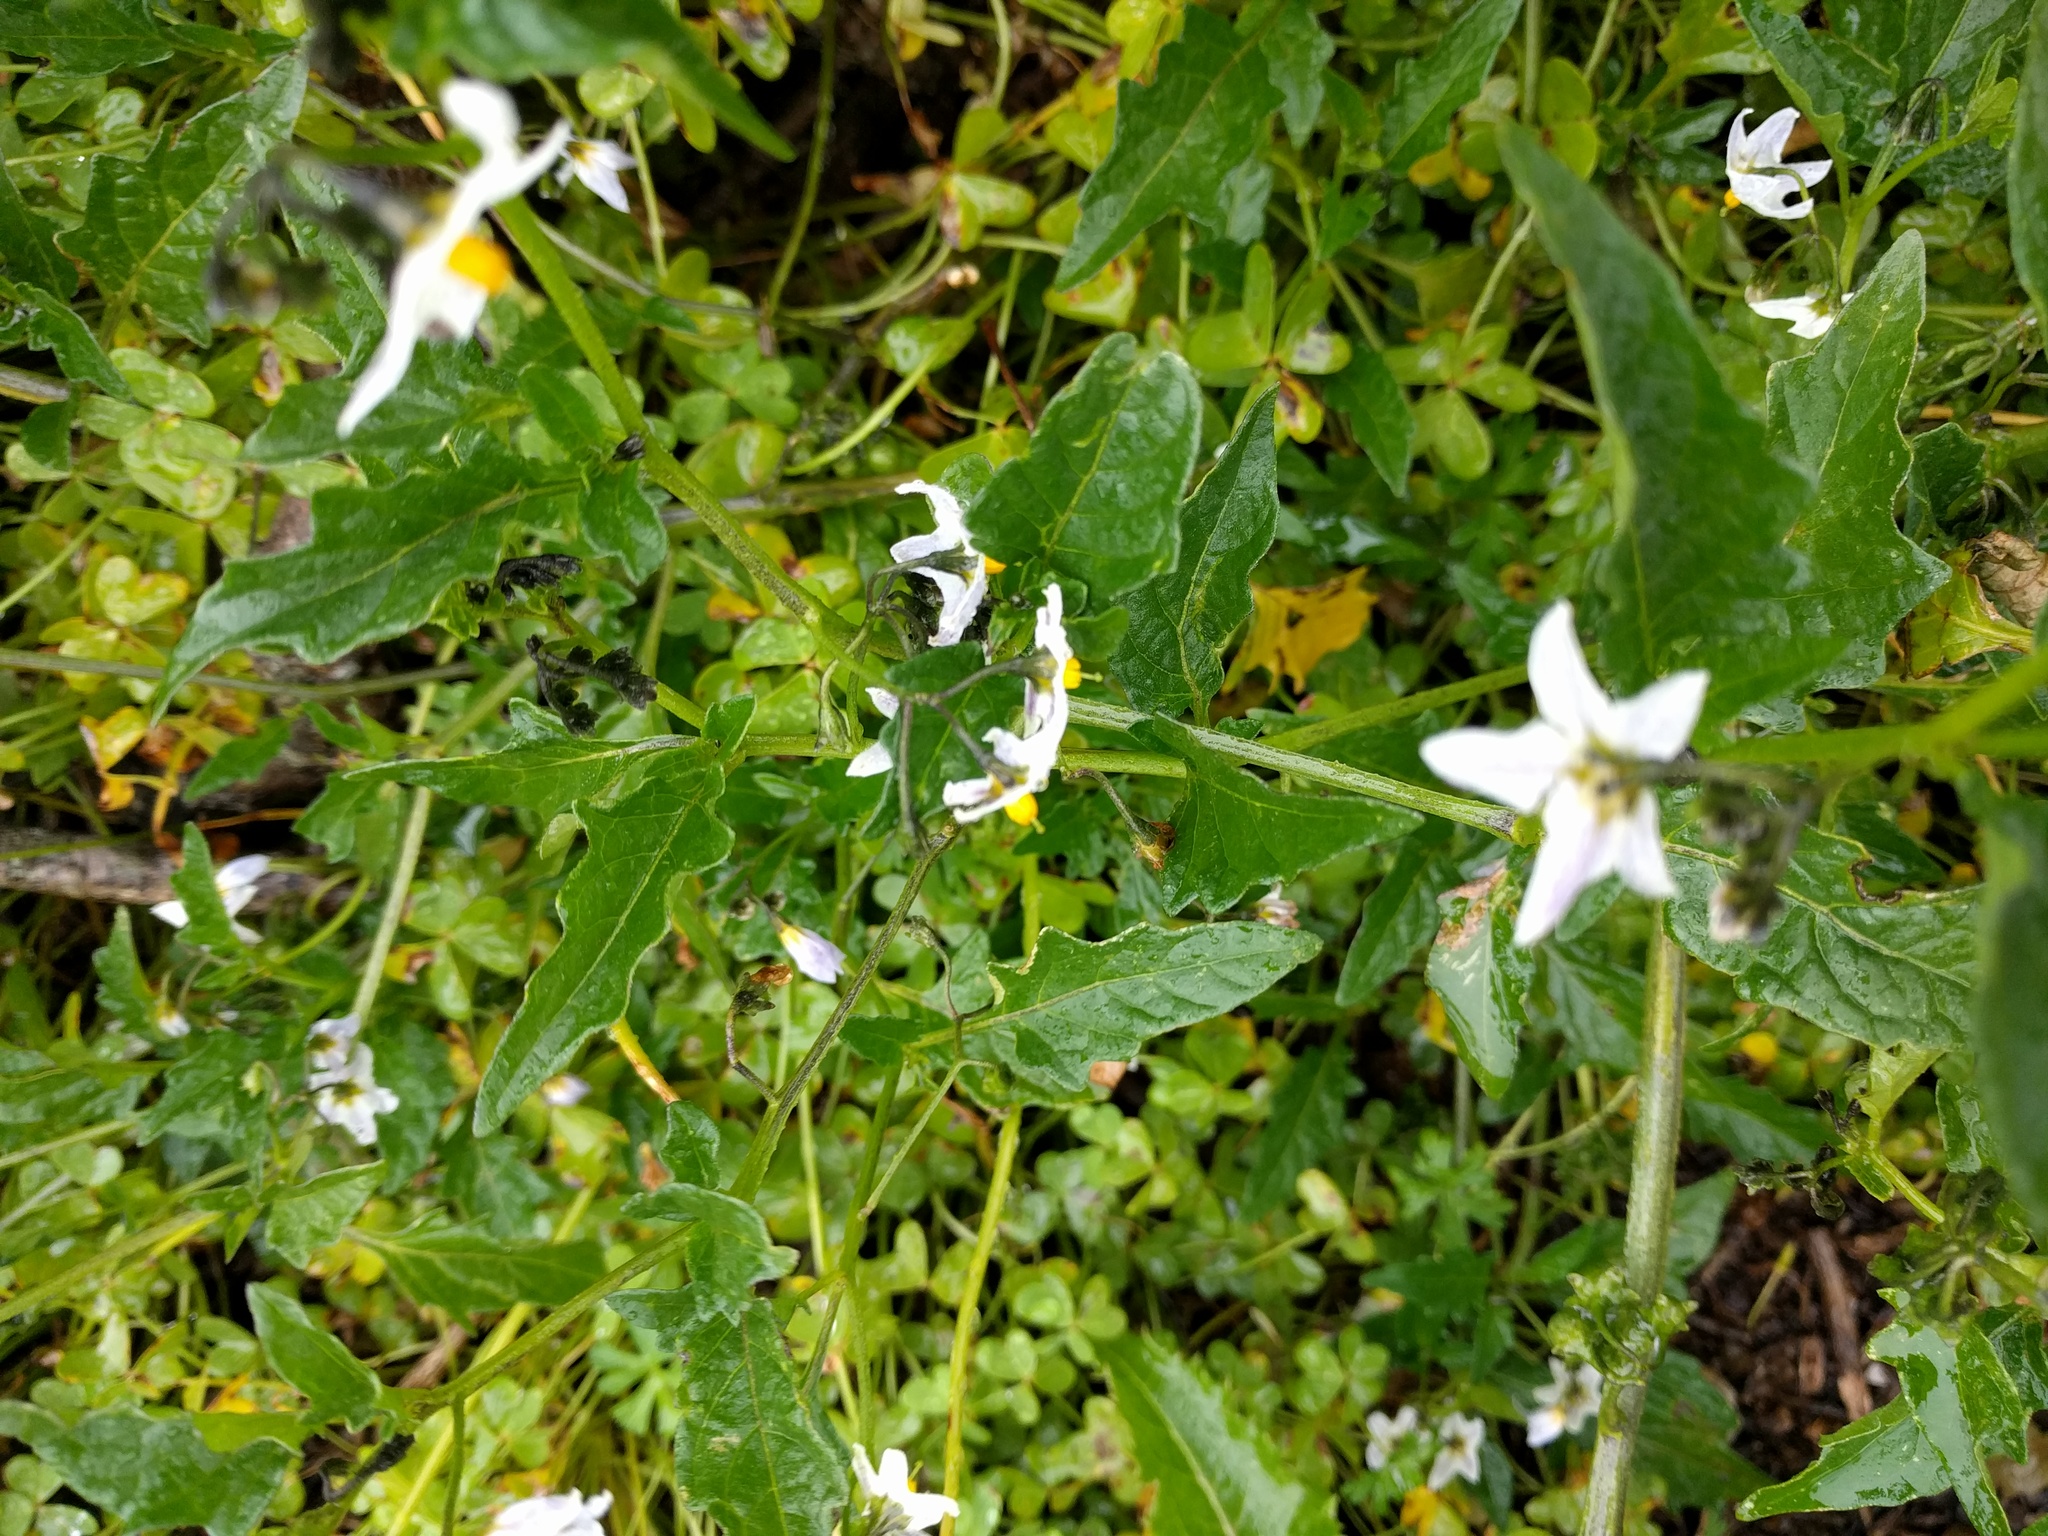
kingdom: Plantae
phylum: Tracheophyta
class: Magnoliopsida
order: Solanales
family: Solanaceae
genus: Solanum
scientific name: Solanum americanum
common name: American black nightshade
